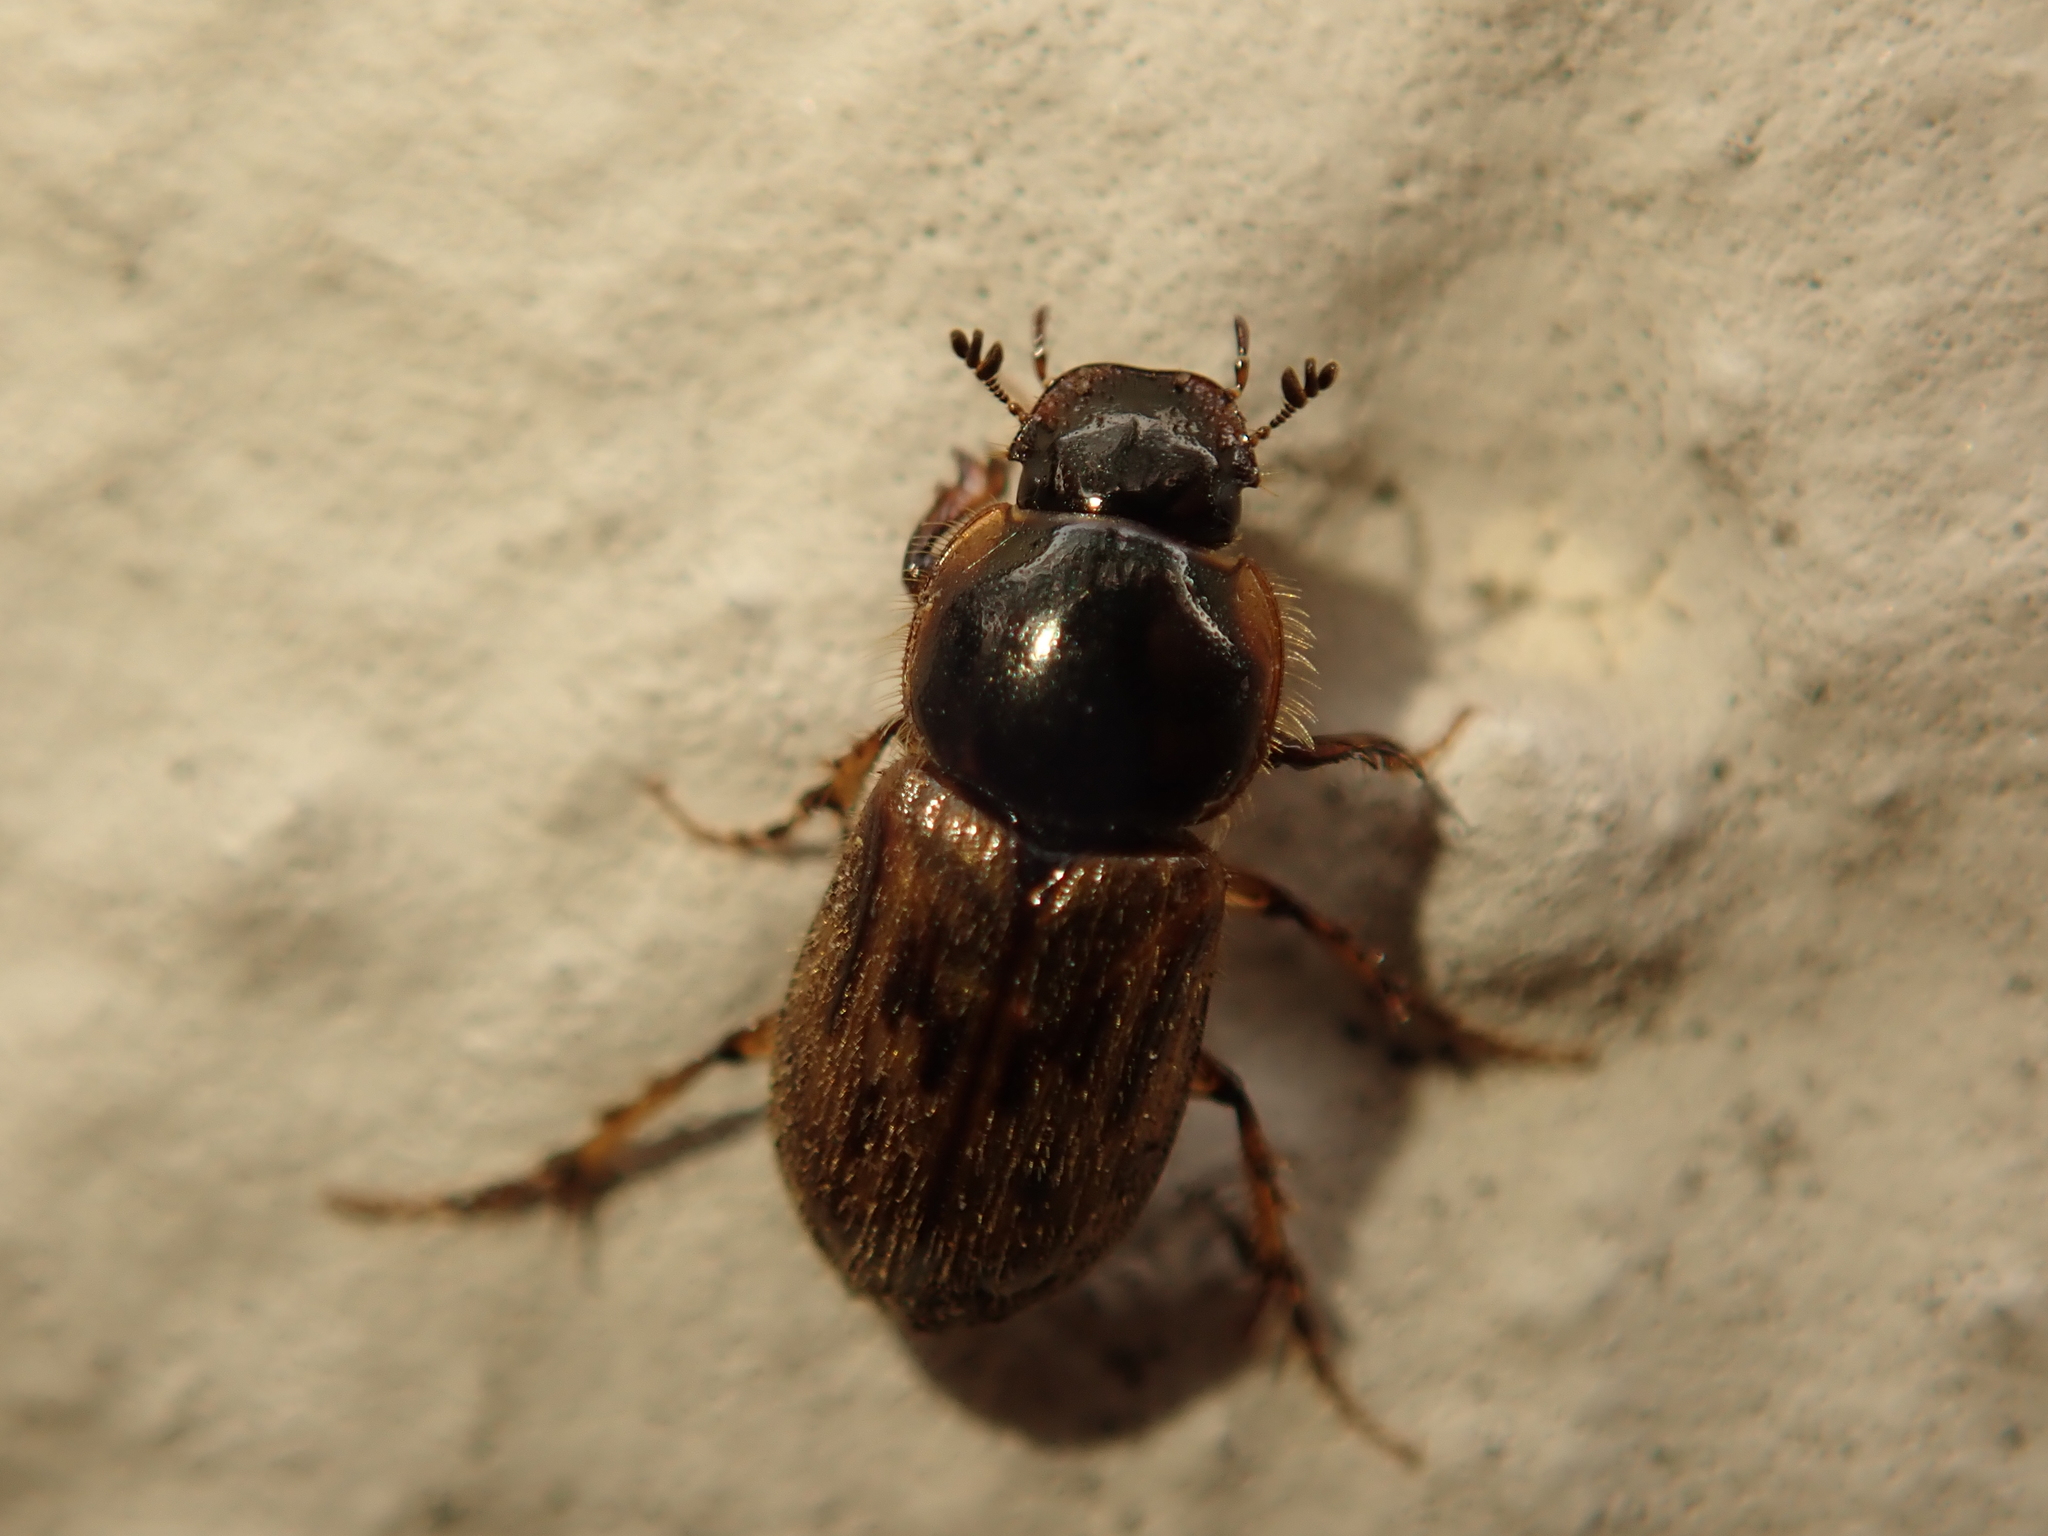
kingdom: Animalia
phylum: Arthropoda
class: Insecta
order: Coleoptera
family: Scarabaeidae
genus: Nimbus
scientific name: Nimbus contaminatus
